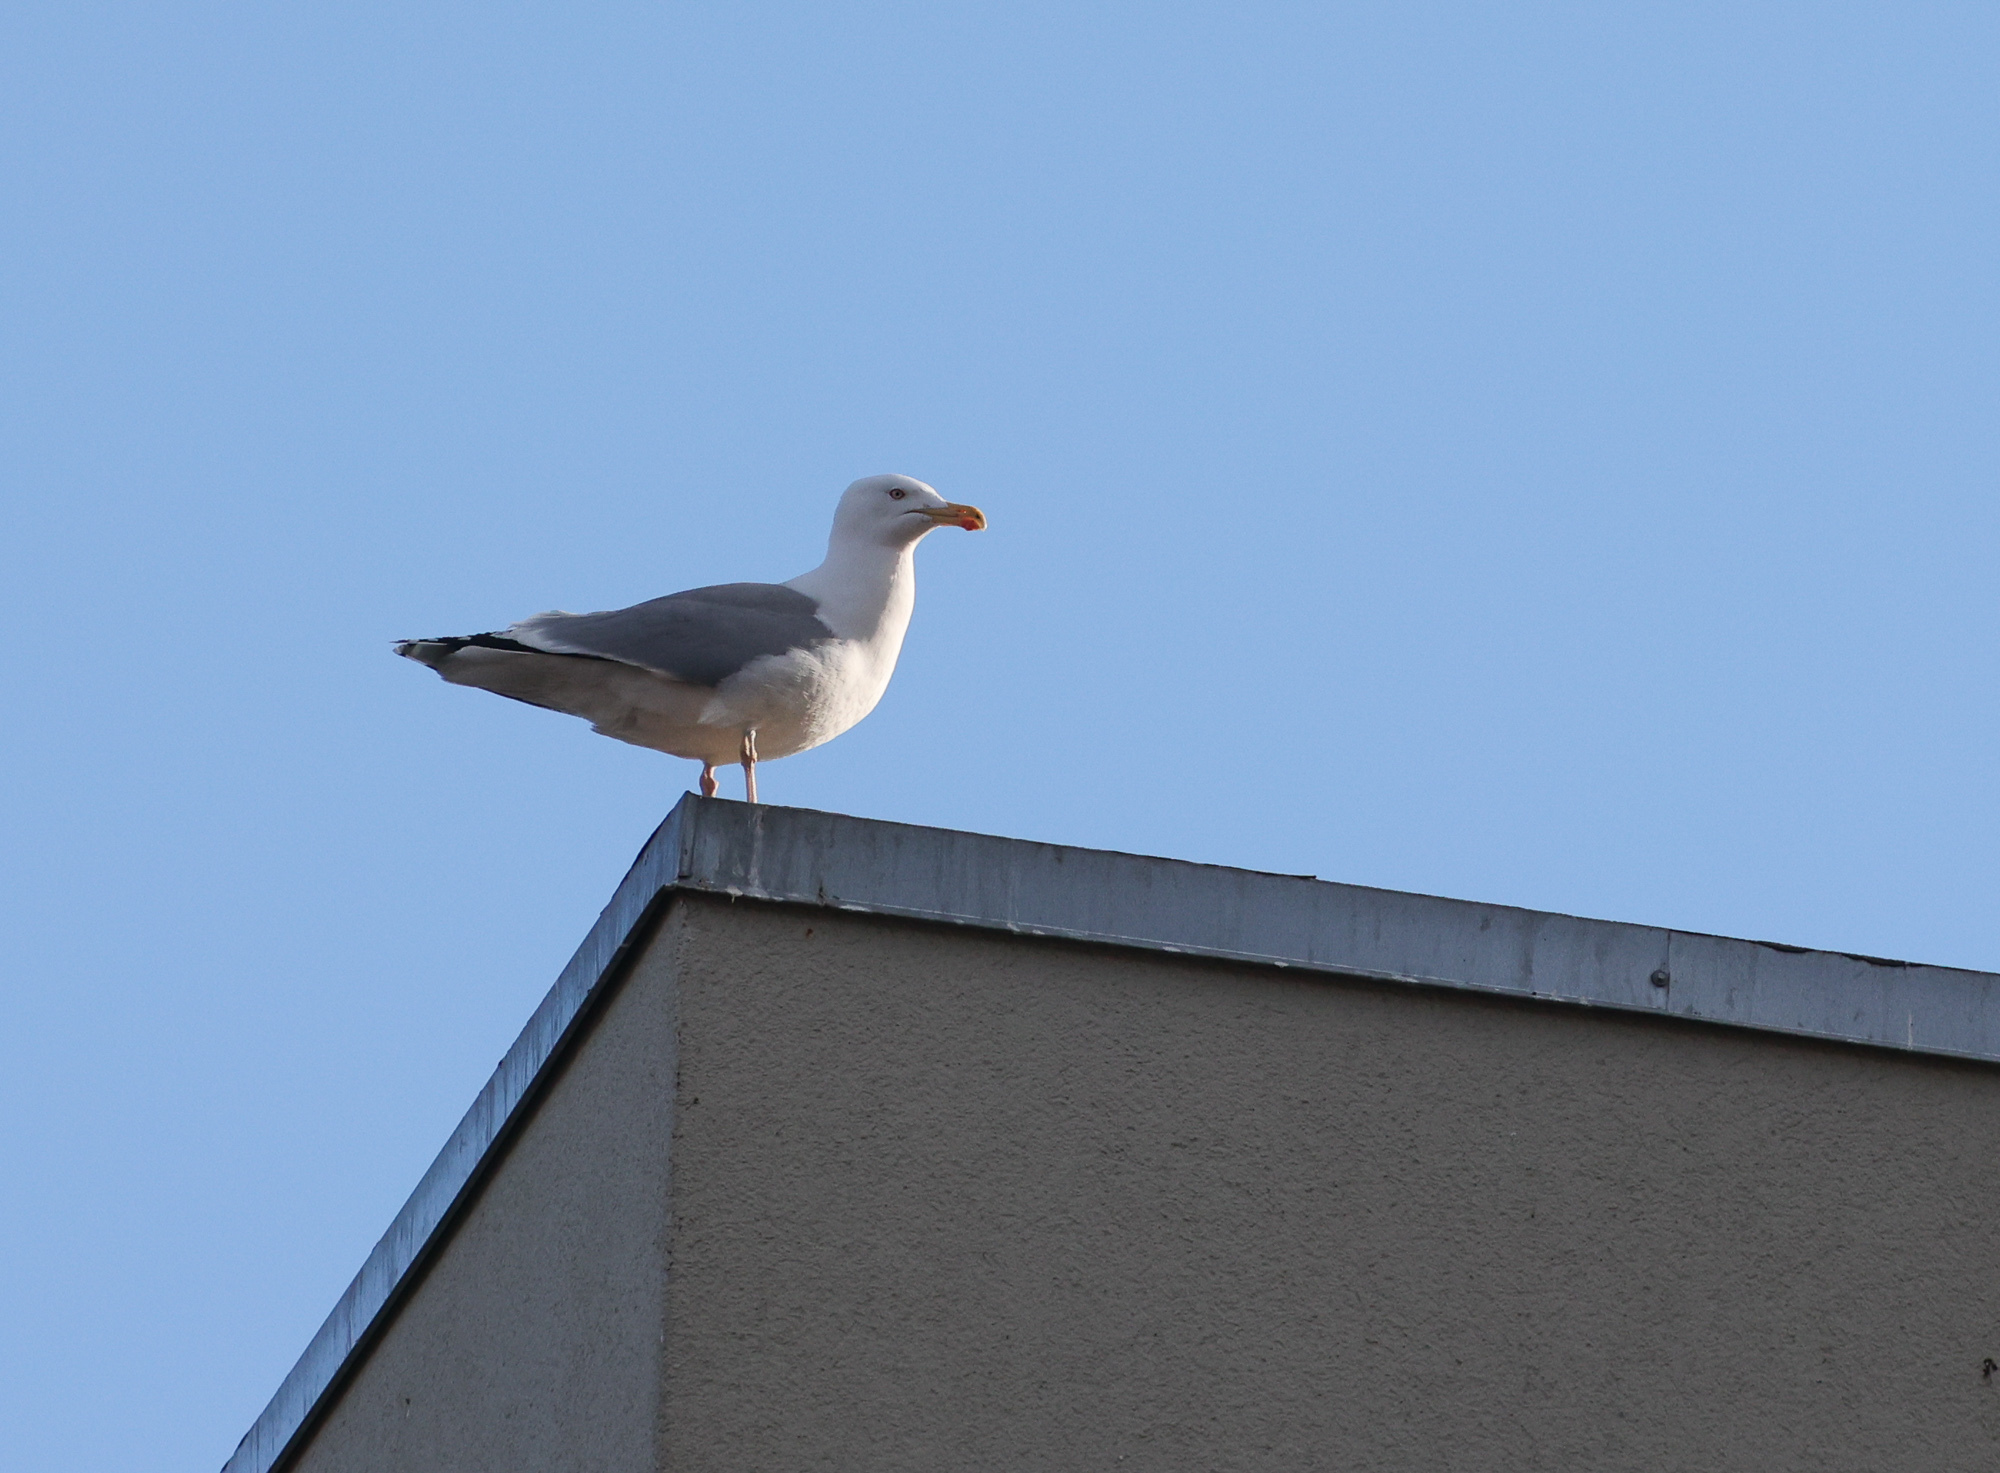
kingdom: Animalia
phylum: Chordata
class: Aves
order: Charadriiformes
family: Laridae
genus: Larus
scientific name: Larus argentatus
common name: Herring gull
